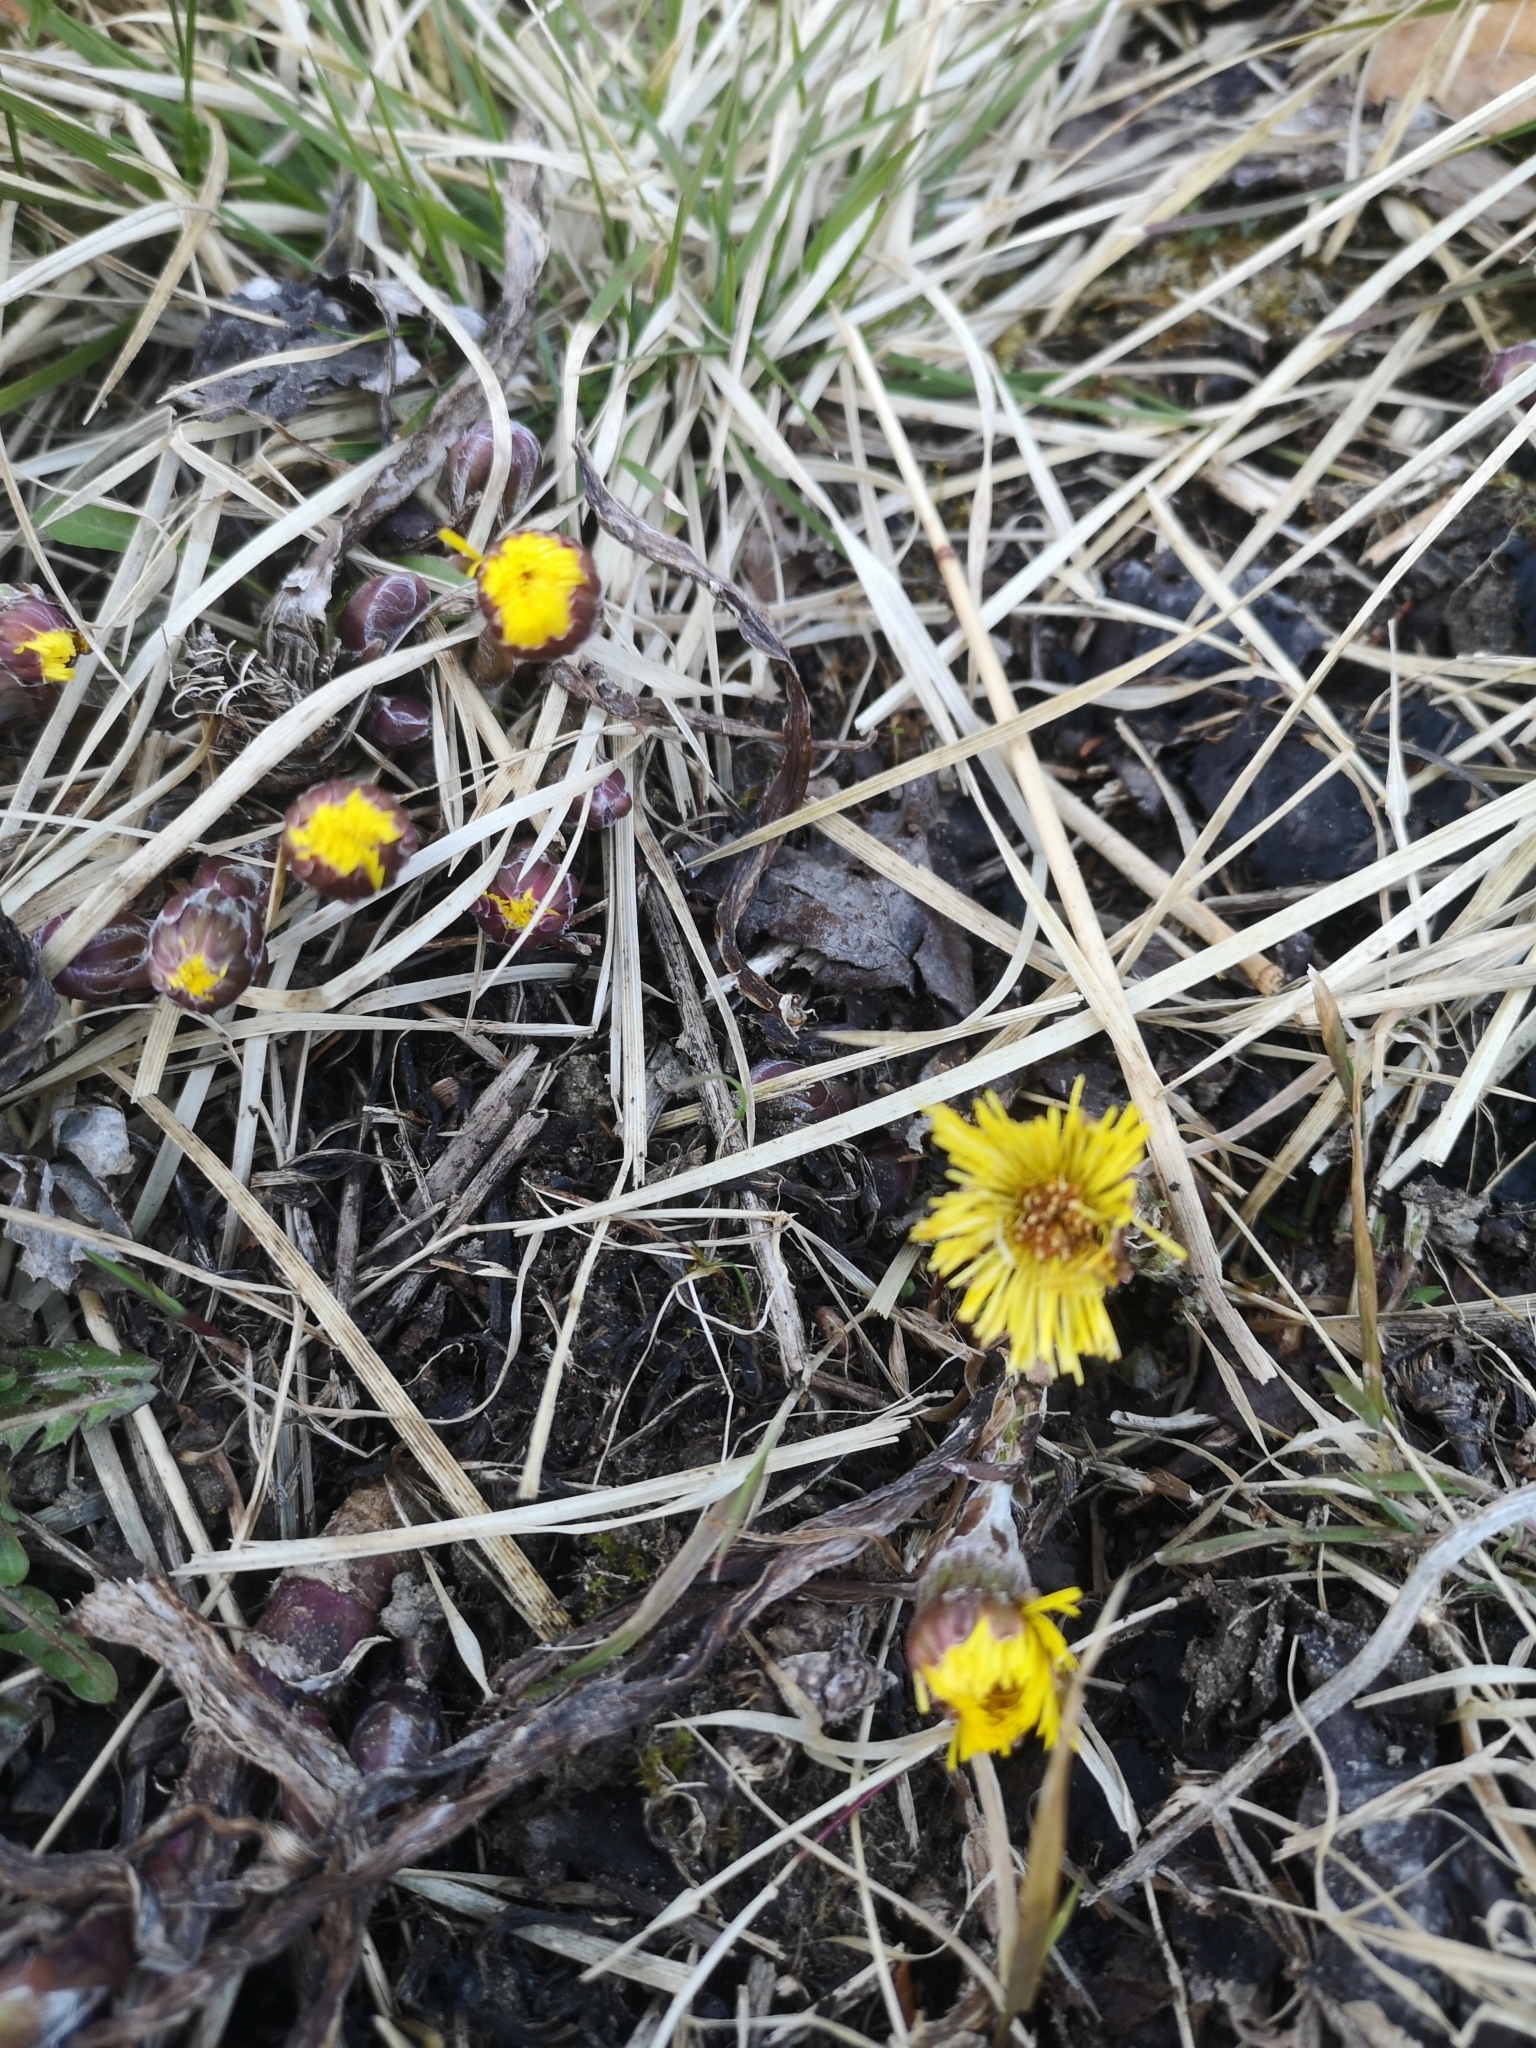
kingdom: Plantae
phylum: Tracheophyta
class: Magnoliopsida
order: Asterales
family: Asteraceae
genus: Tussilago
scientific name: Tussilago farfara
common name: Coltsfoot
